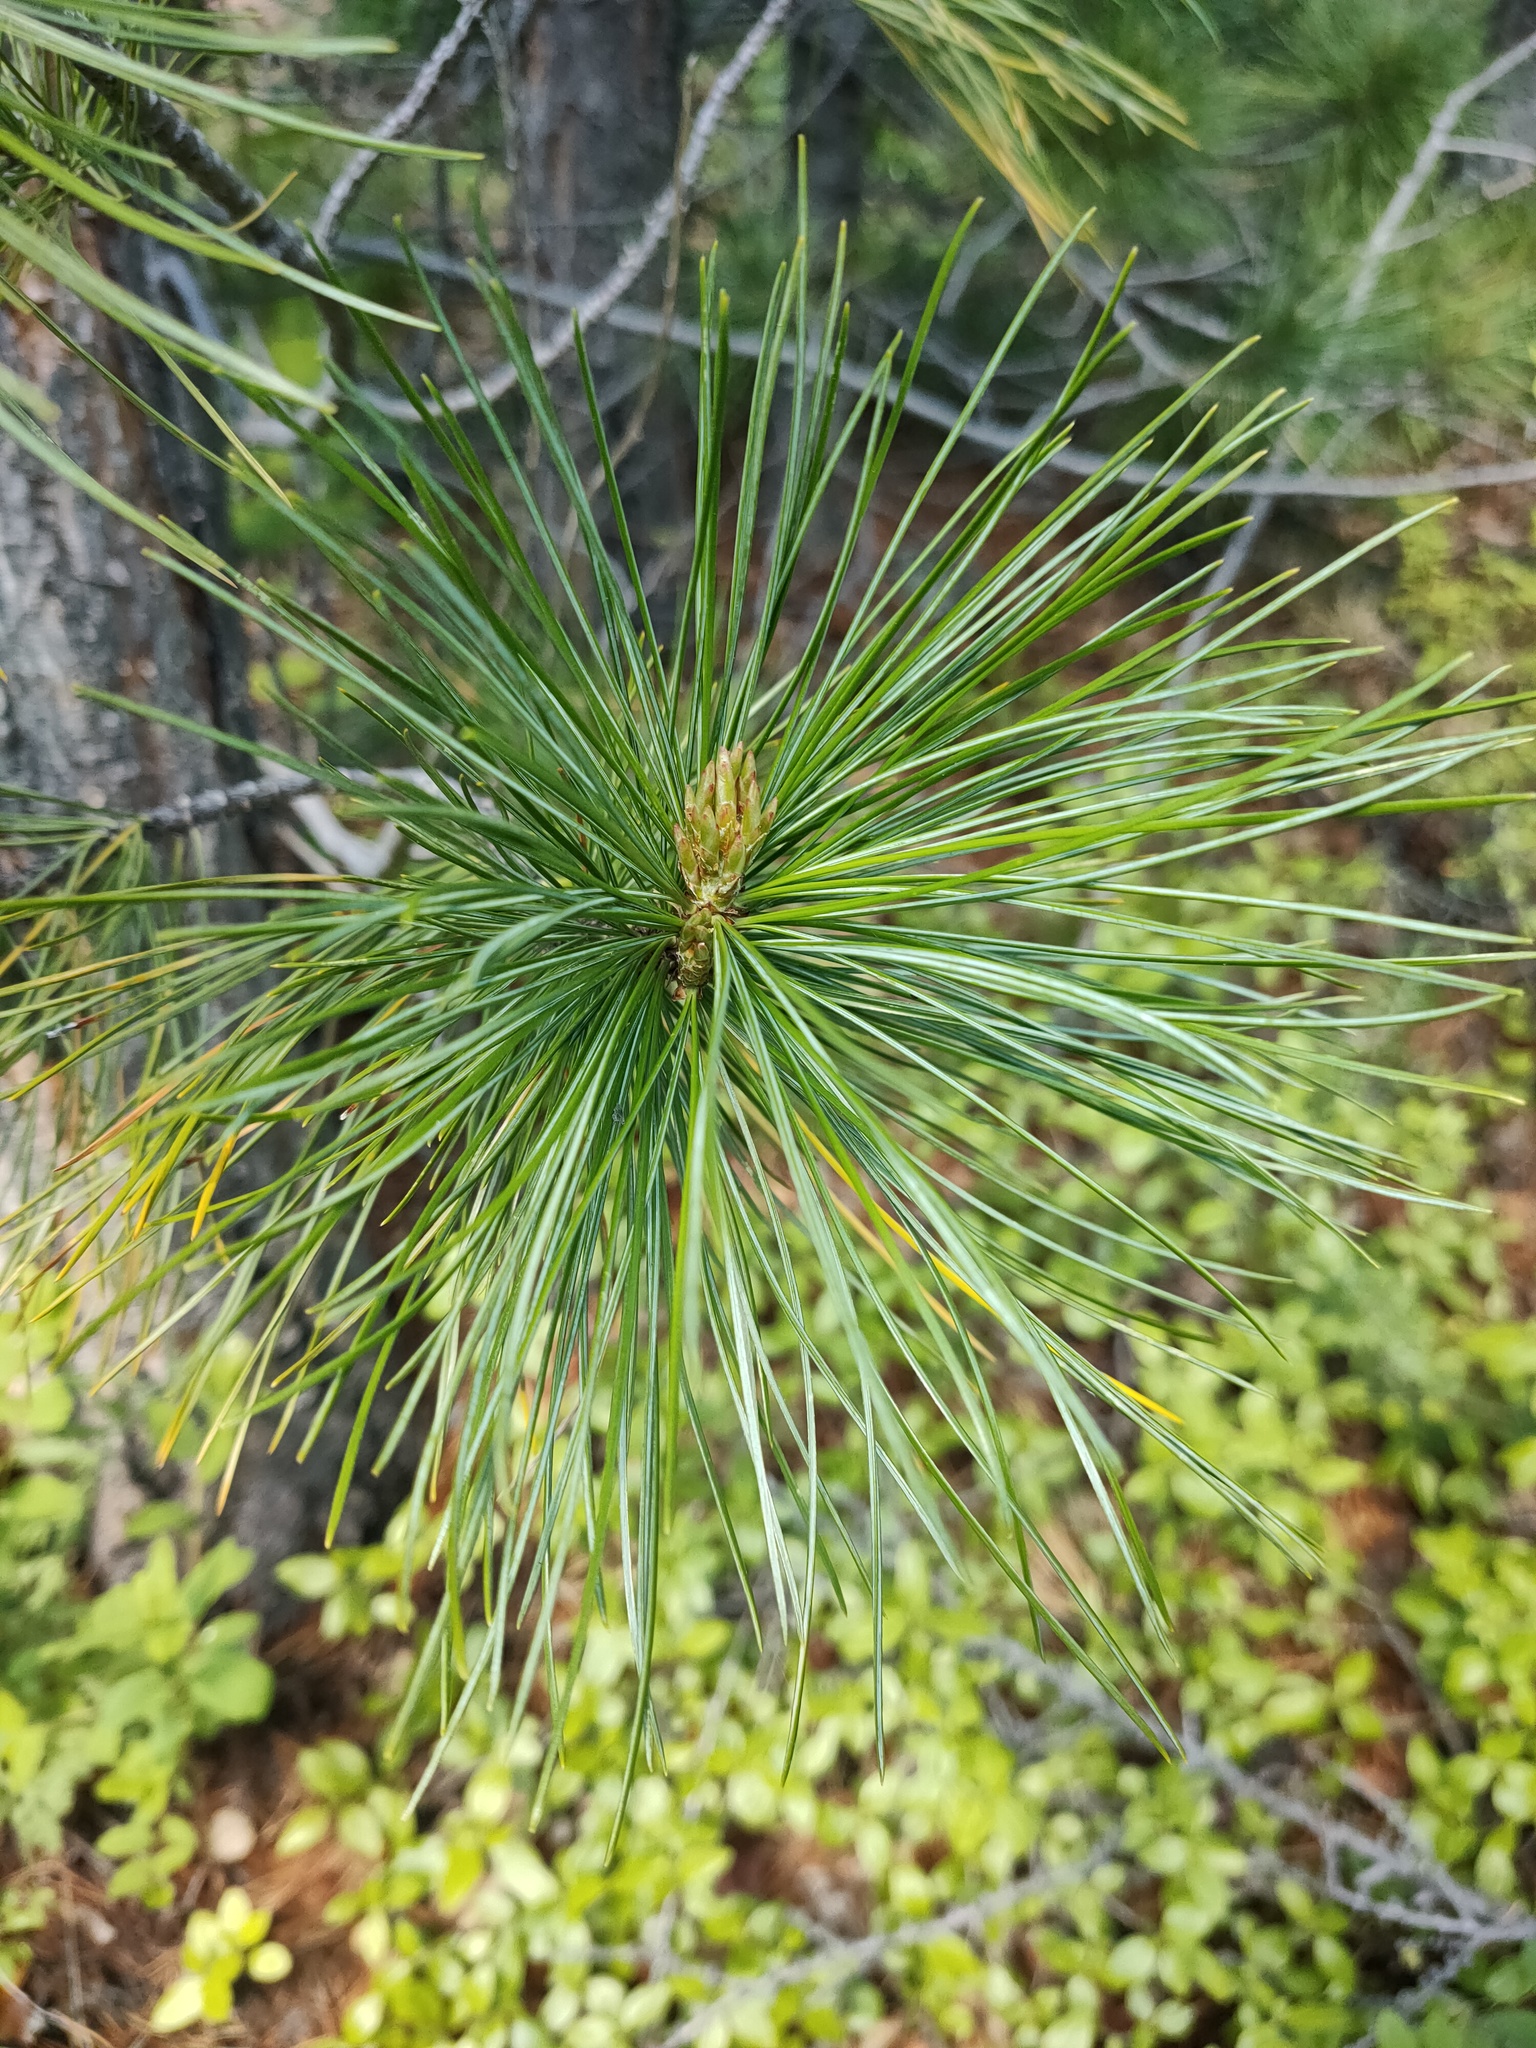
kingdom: Plantae
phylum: Tracheophyta
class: Pinopsida
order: Pinales
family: Pinaceae
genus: Pinus
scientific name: Pinus sibirica
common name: Siberian pine
